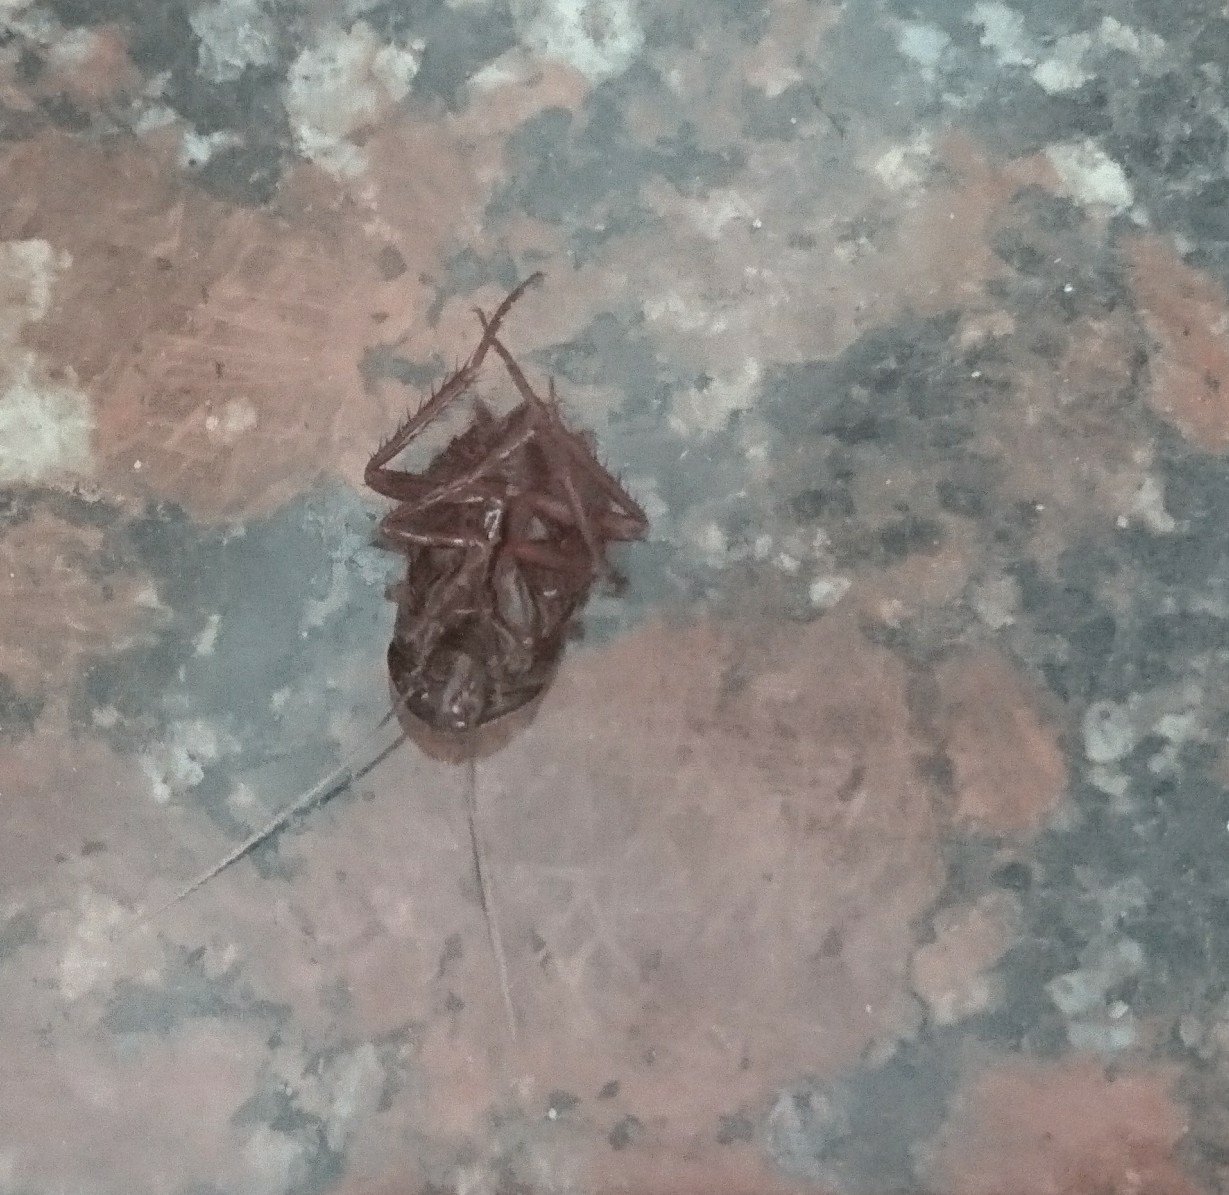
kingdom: Animalia
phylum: Arthropoda
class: Insecta
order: Blattodea
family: Blattidae
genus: Blatta
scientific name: Blatta orientalis
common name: Oriental cockroach
